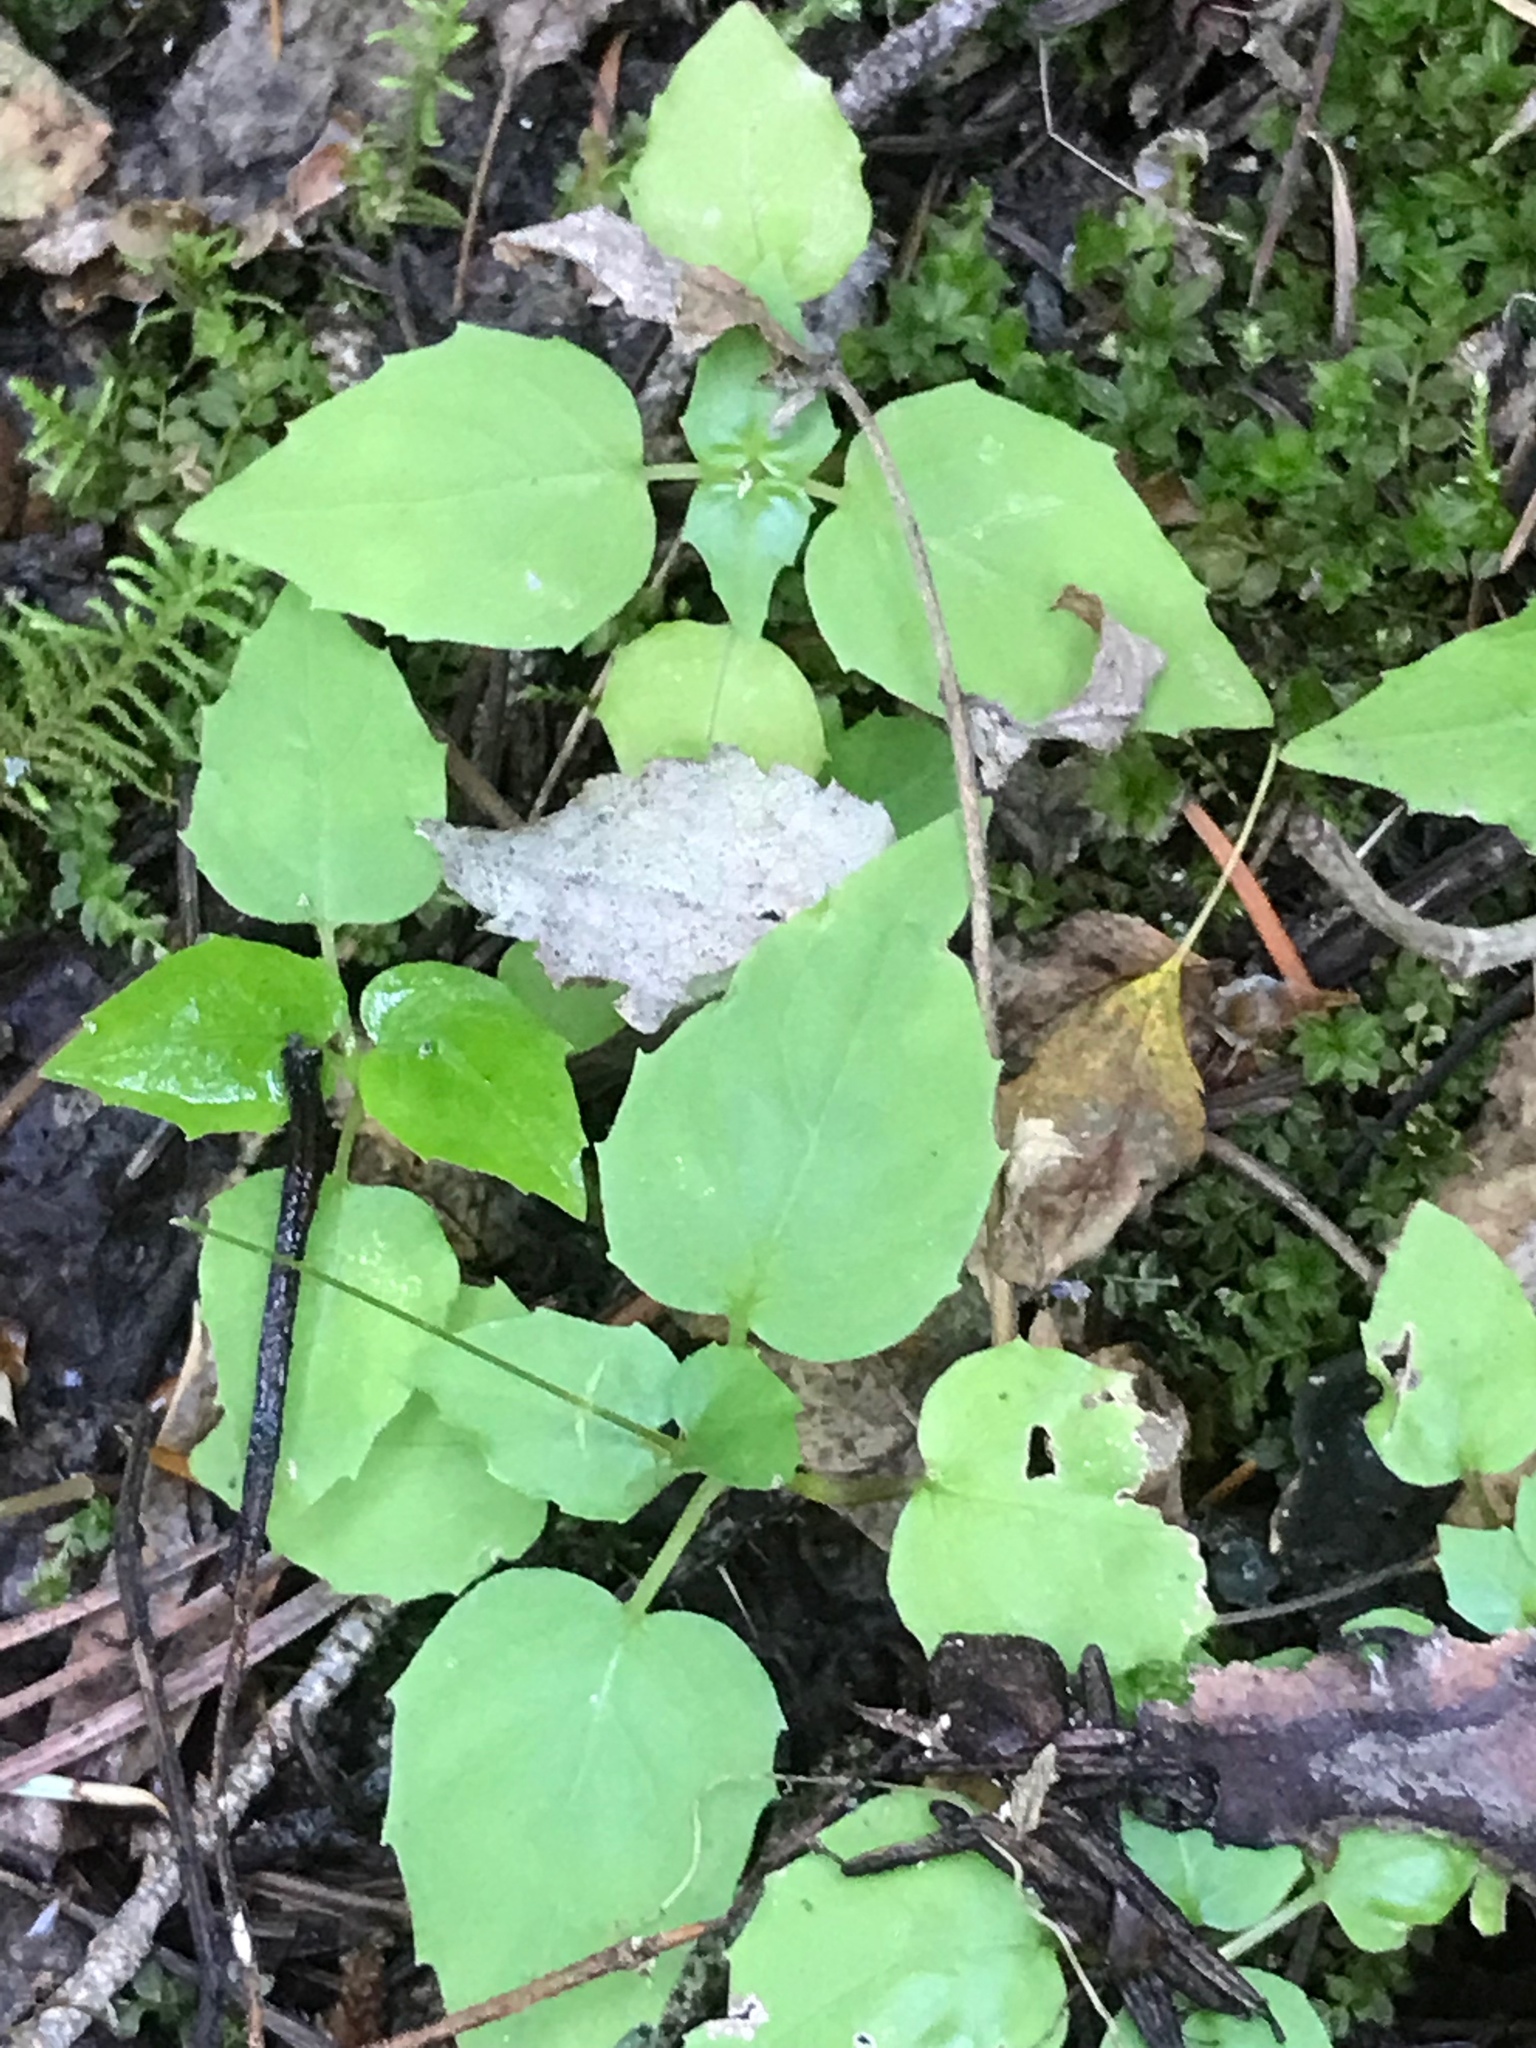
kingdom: Plantae
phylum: Tracheophyta
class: Magnoliopsida
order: Myrtales
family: Onagraceae
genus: Circaea
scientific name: Circaea alpina
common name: Alpine enchanter's-nightshade
